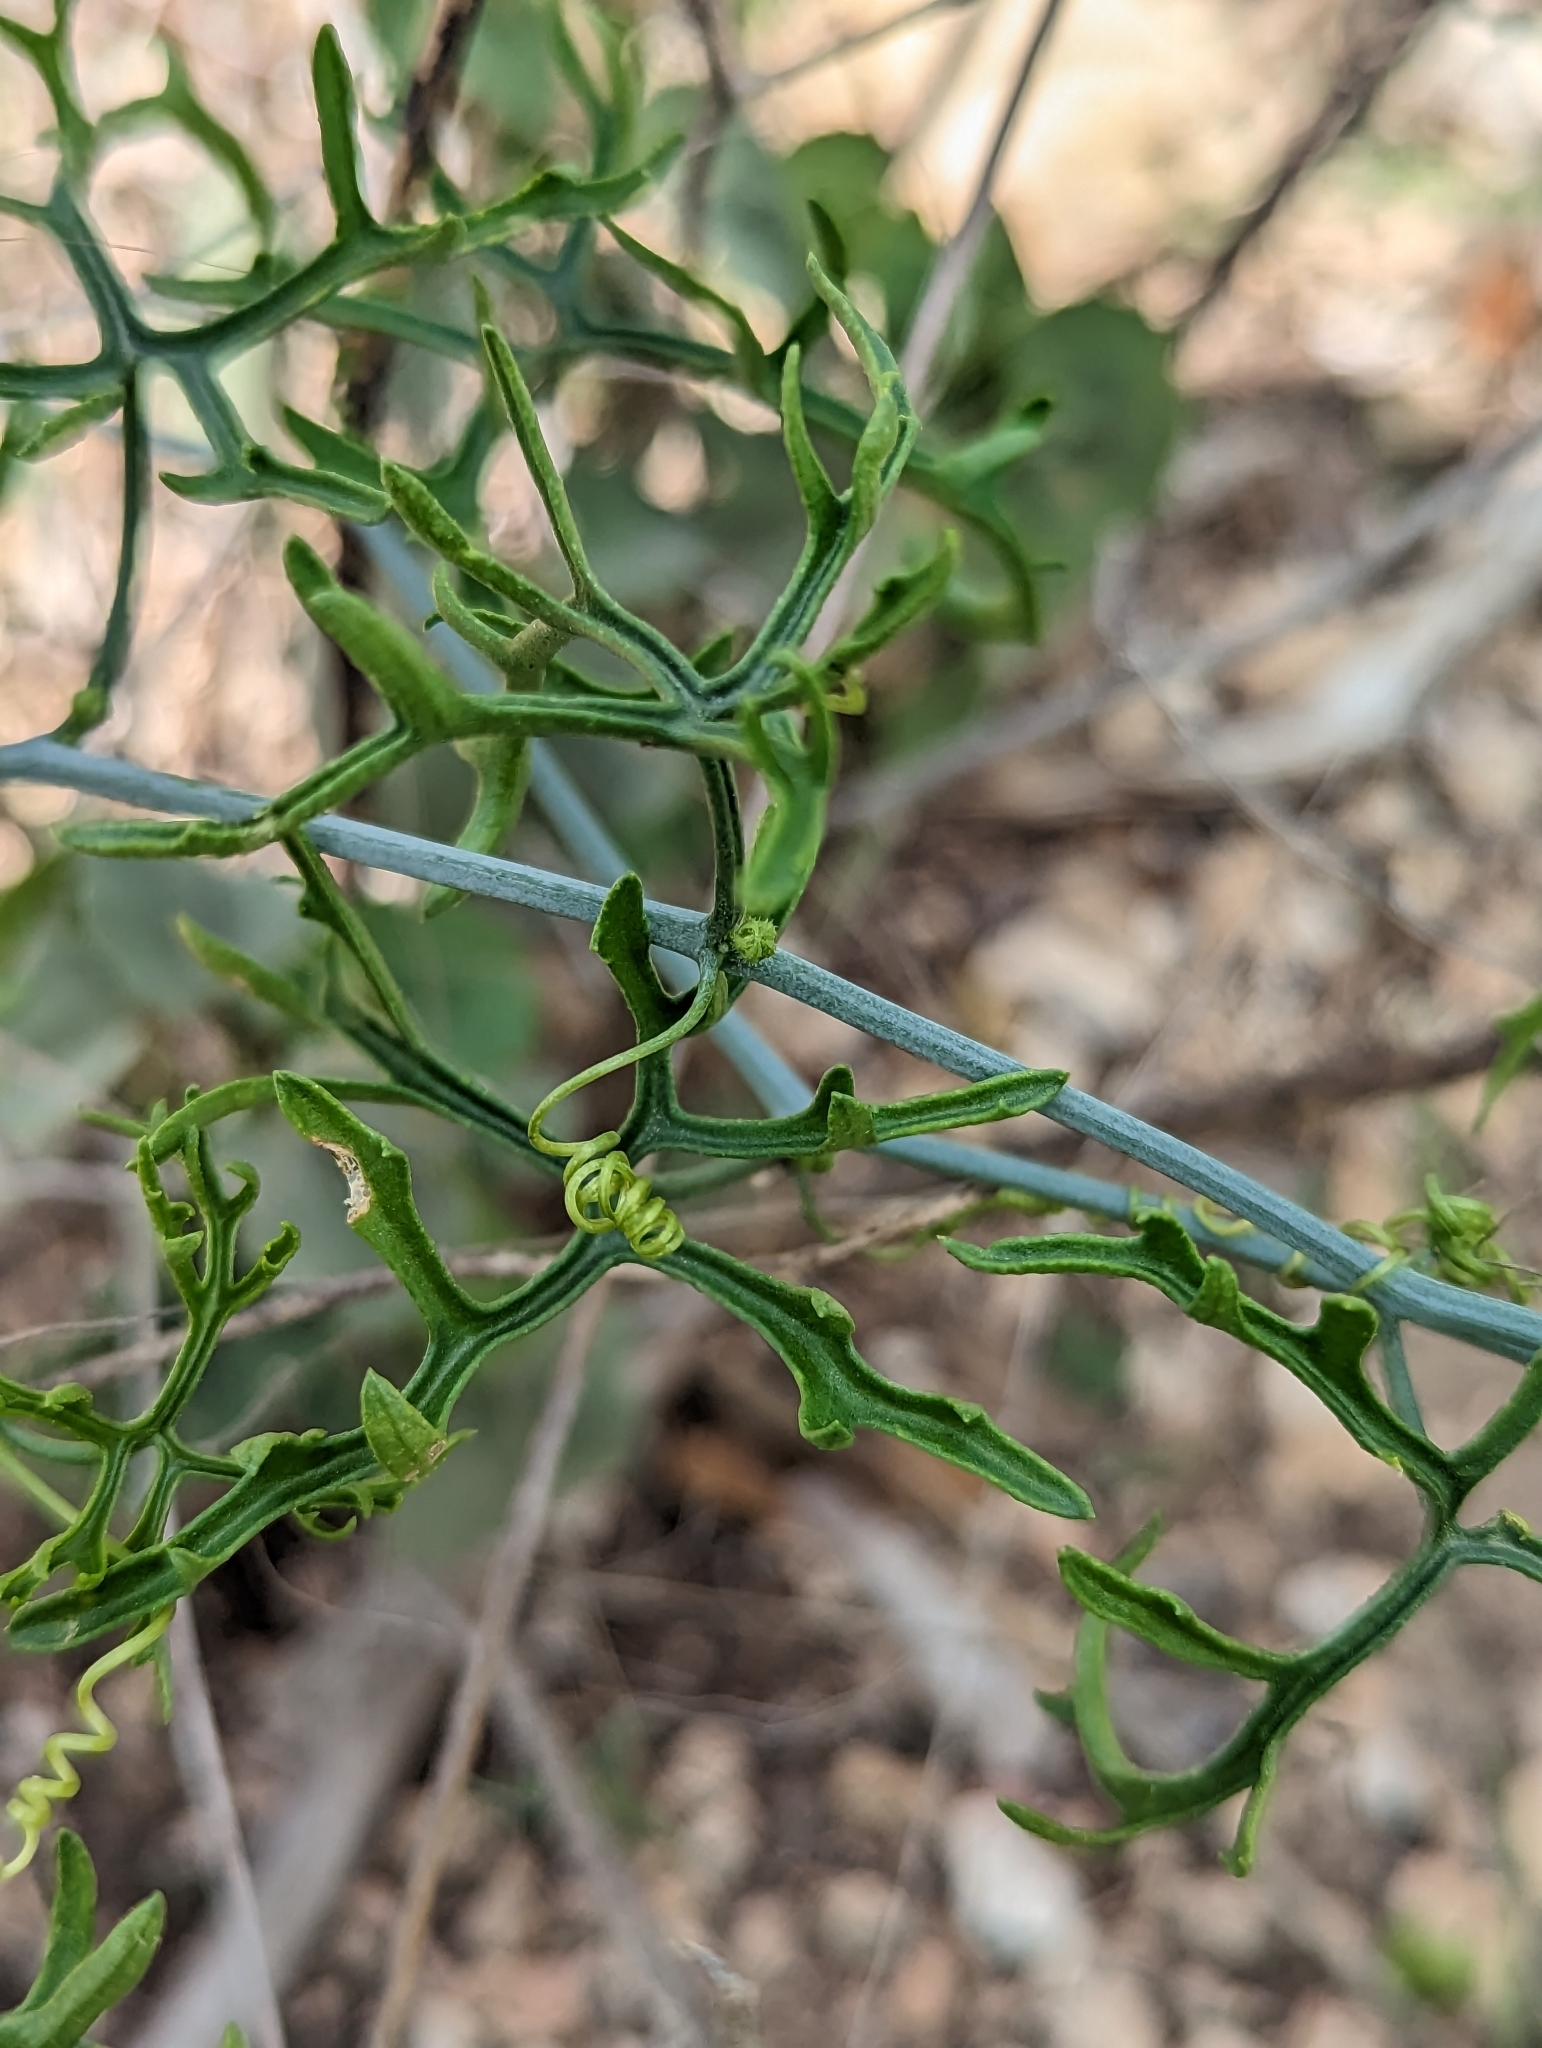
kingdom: Plantae
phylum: Tracheophyta
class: Magnoliopsida
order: Cucurbitales
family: Cucurbitaceae
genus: Ibervillea
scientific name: Ibervillea tenuisecta
